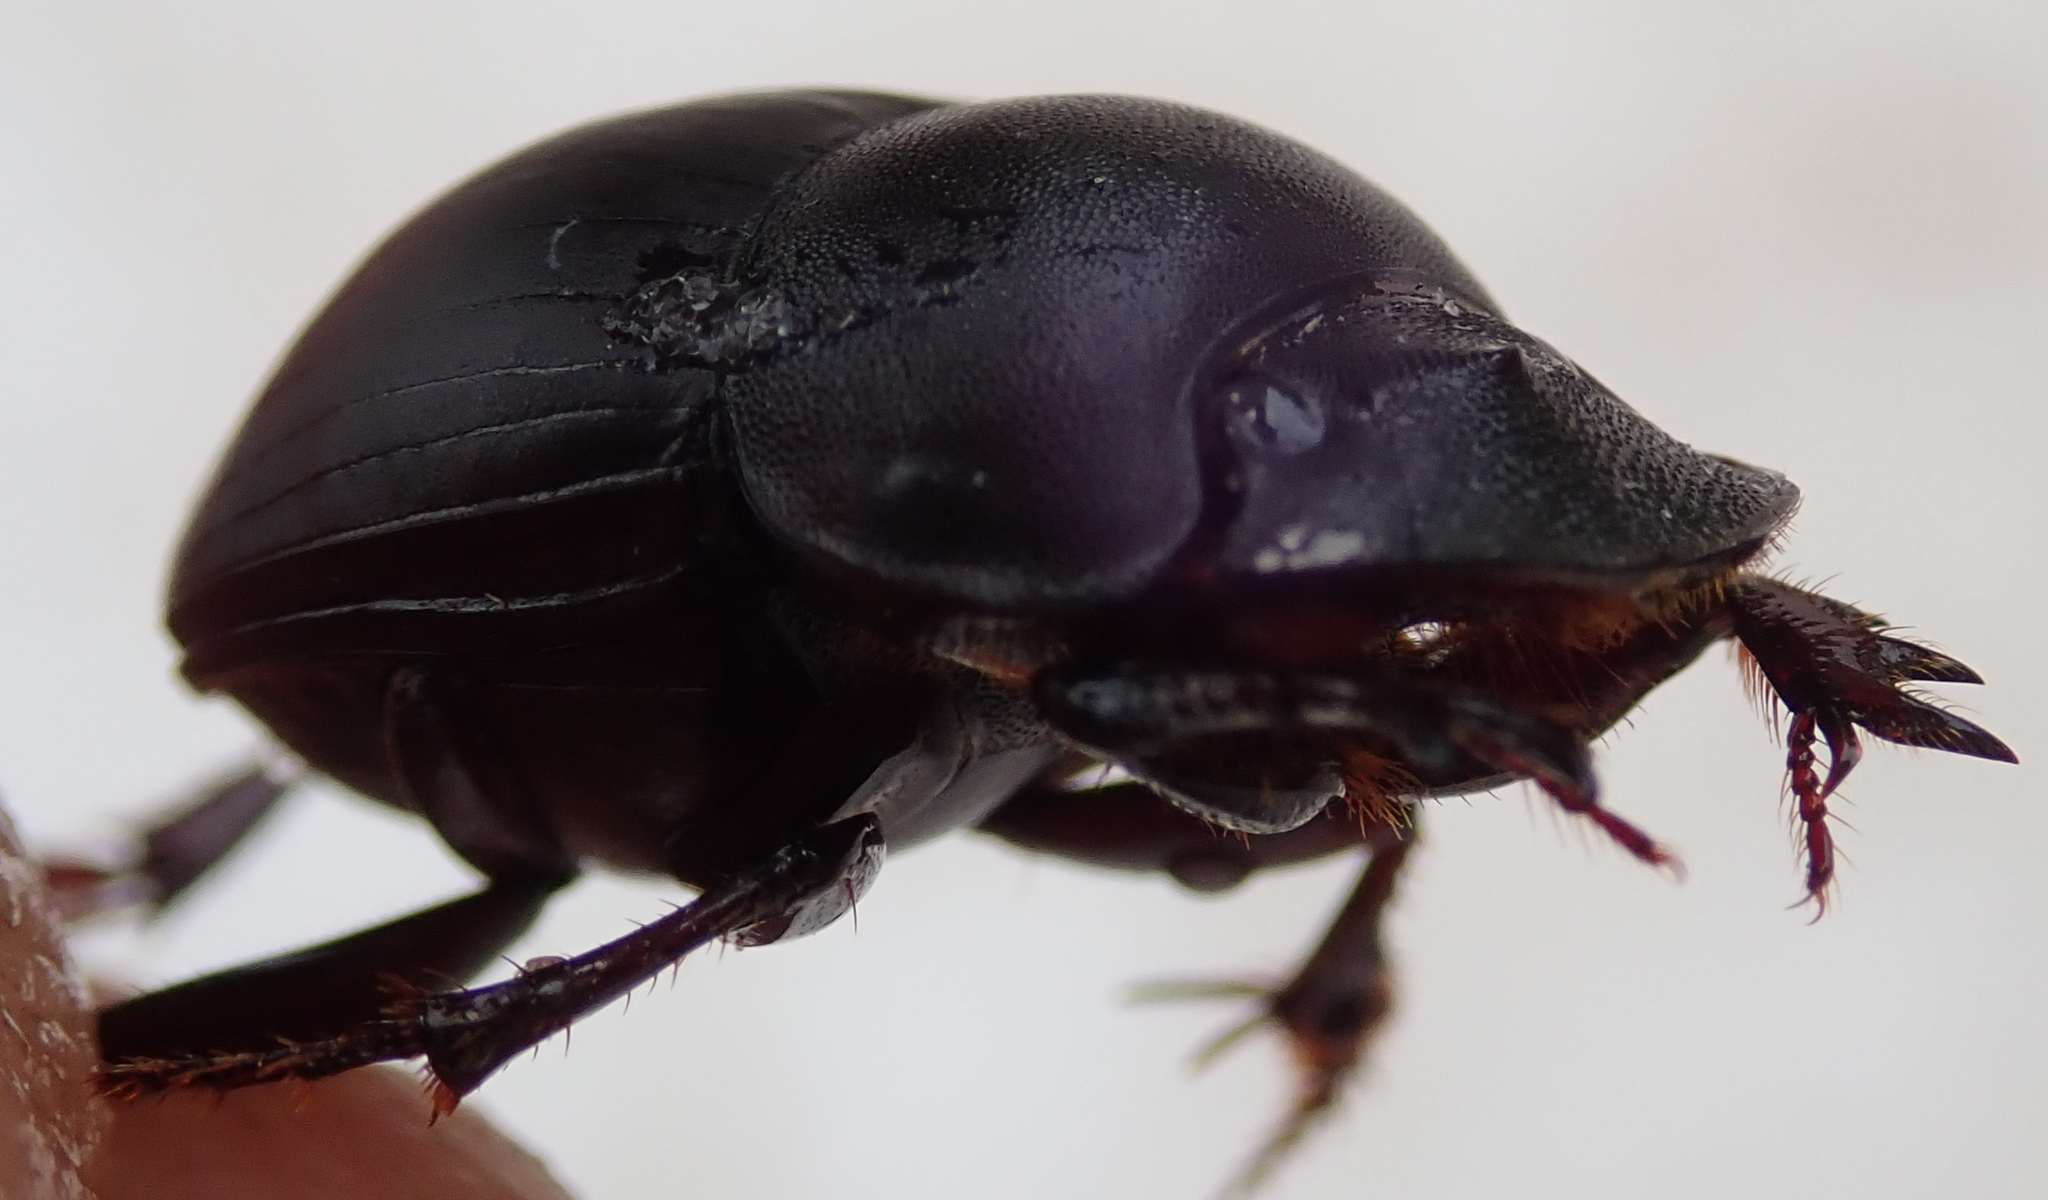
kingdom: Animalia
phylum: Arthropoda
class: Insecta
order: Coleoptera
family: Scarabaeidae
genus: Metacatharsius
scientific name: Metacatharsius opacus
